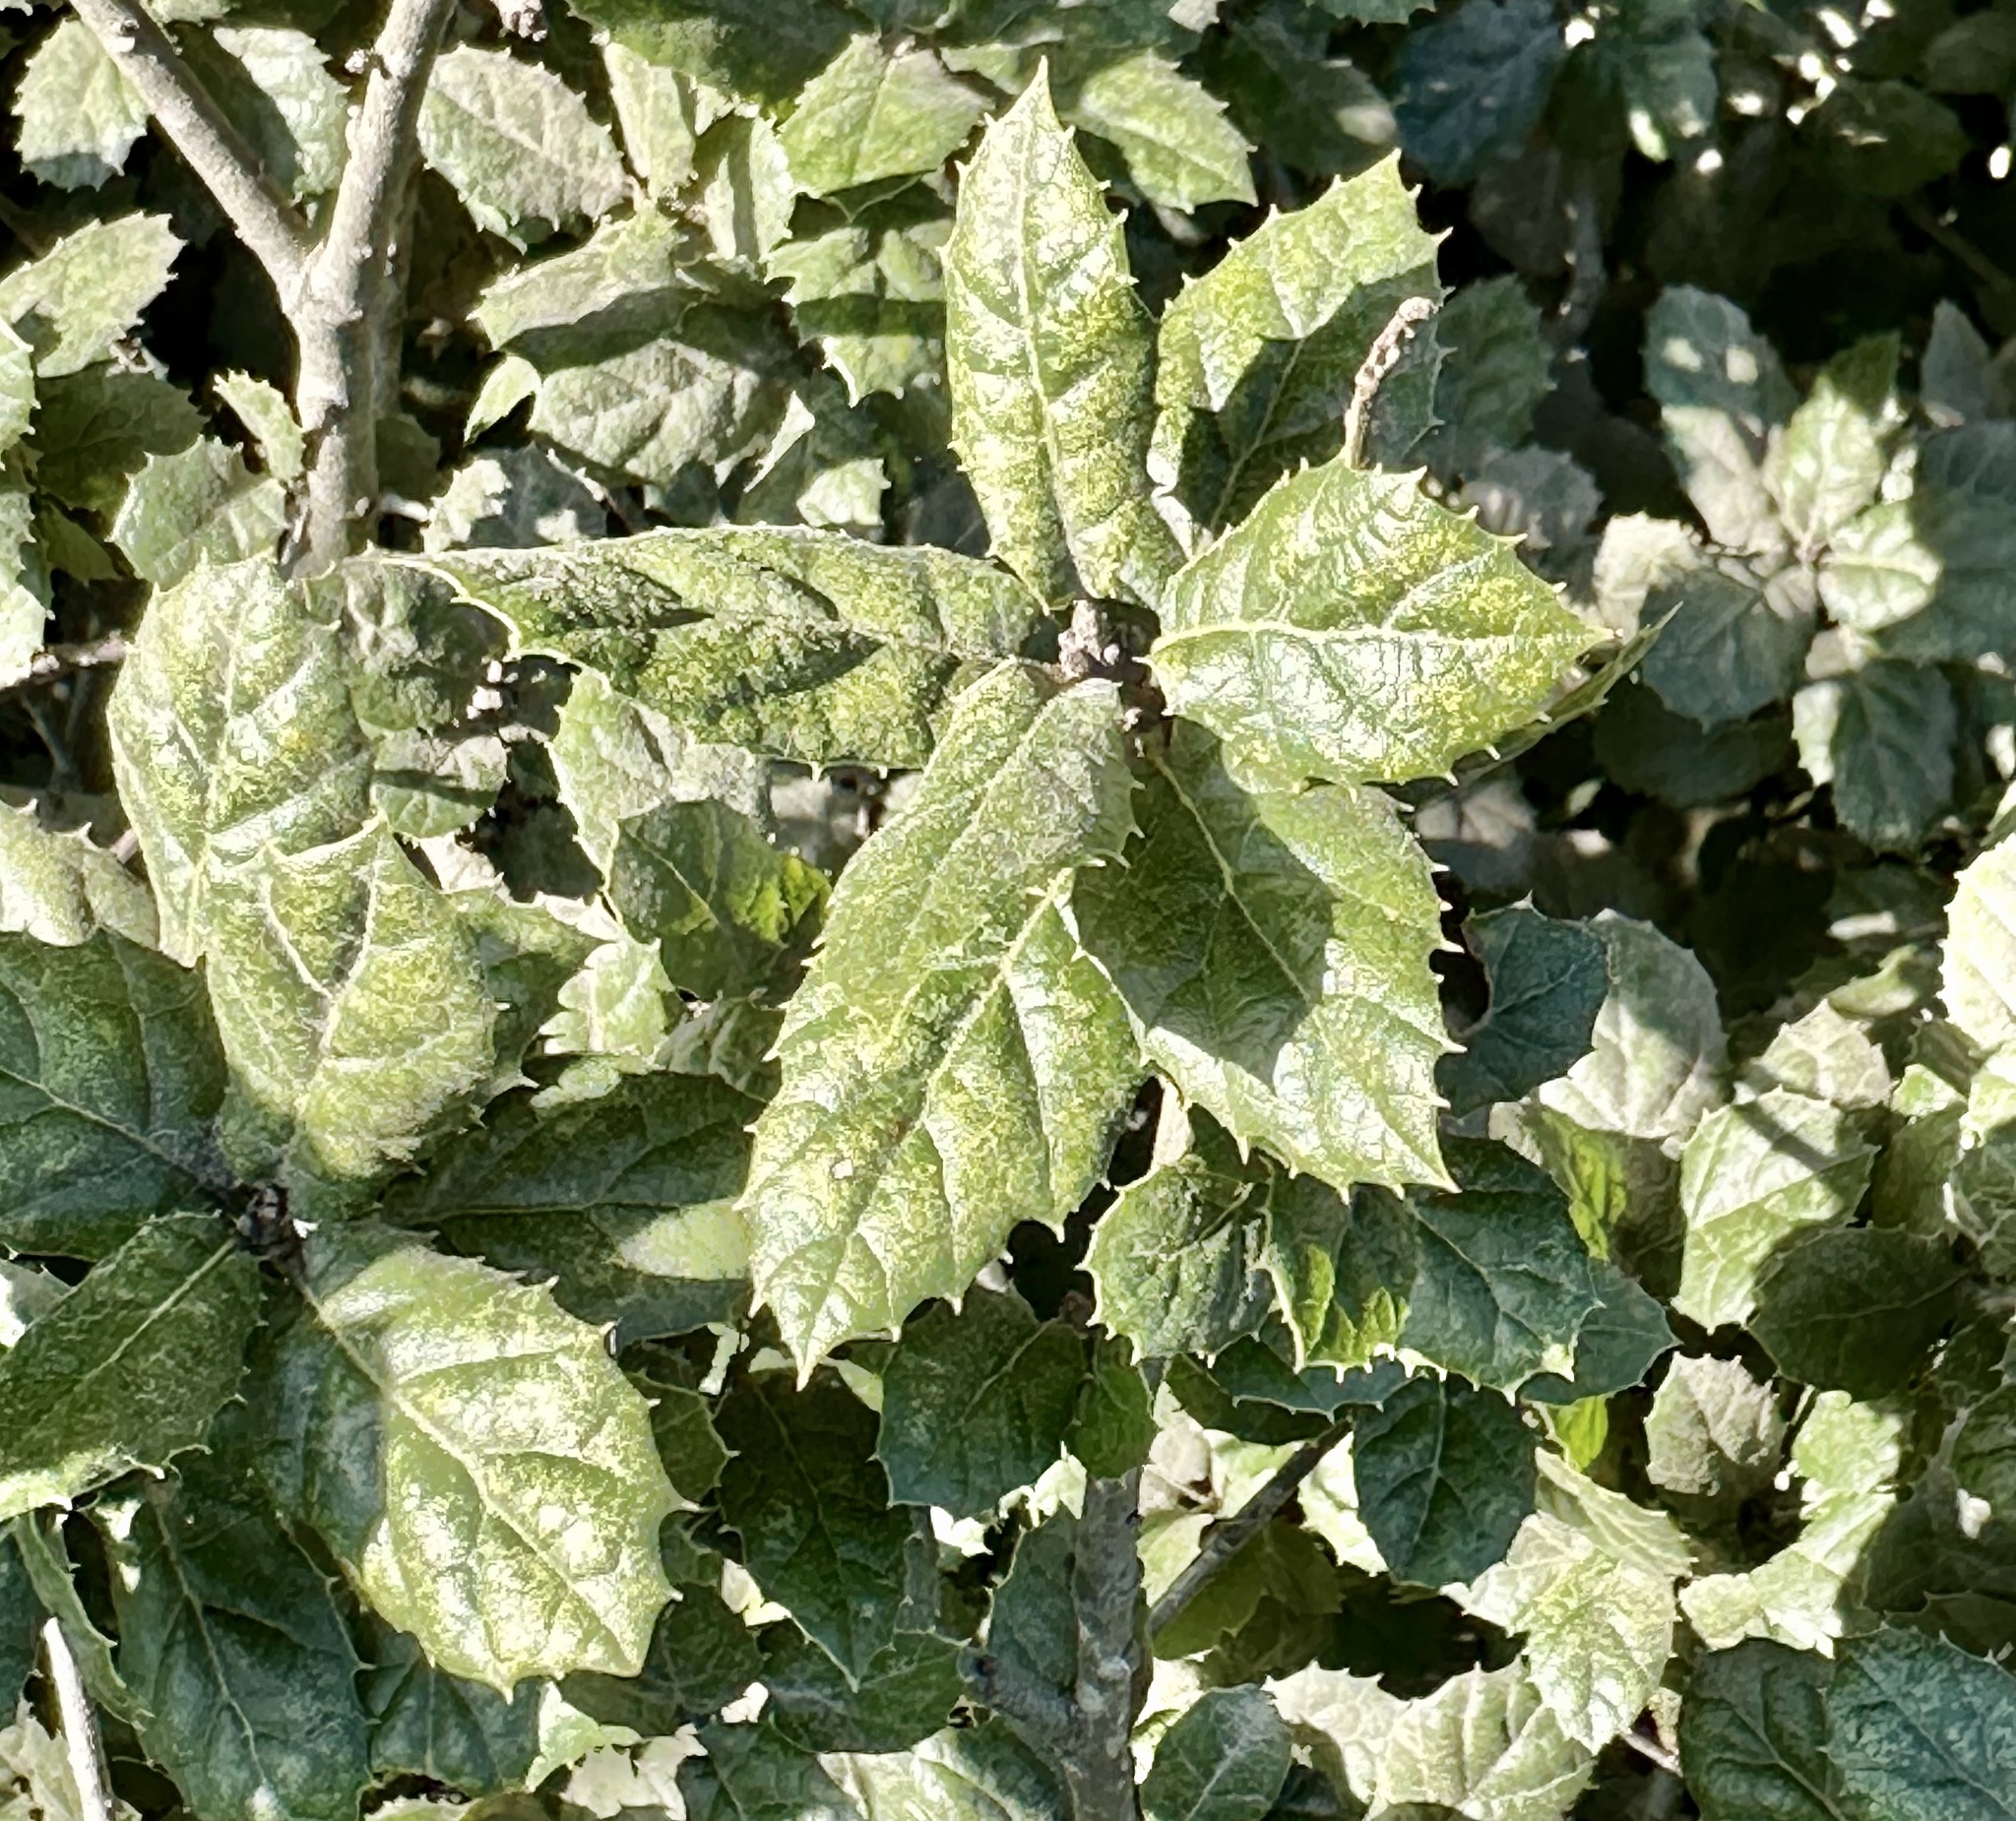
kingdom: Plantae
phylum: Tracheophyta
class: Magnoliopsida
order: Fagales
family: Fagaceae
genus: Quercus
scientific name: Quercus agrifolia
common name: California live oak
